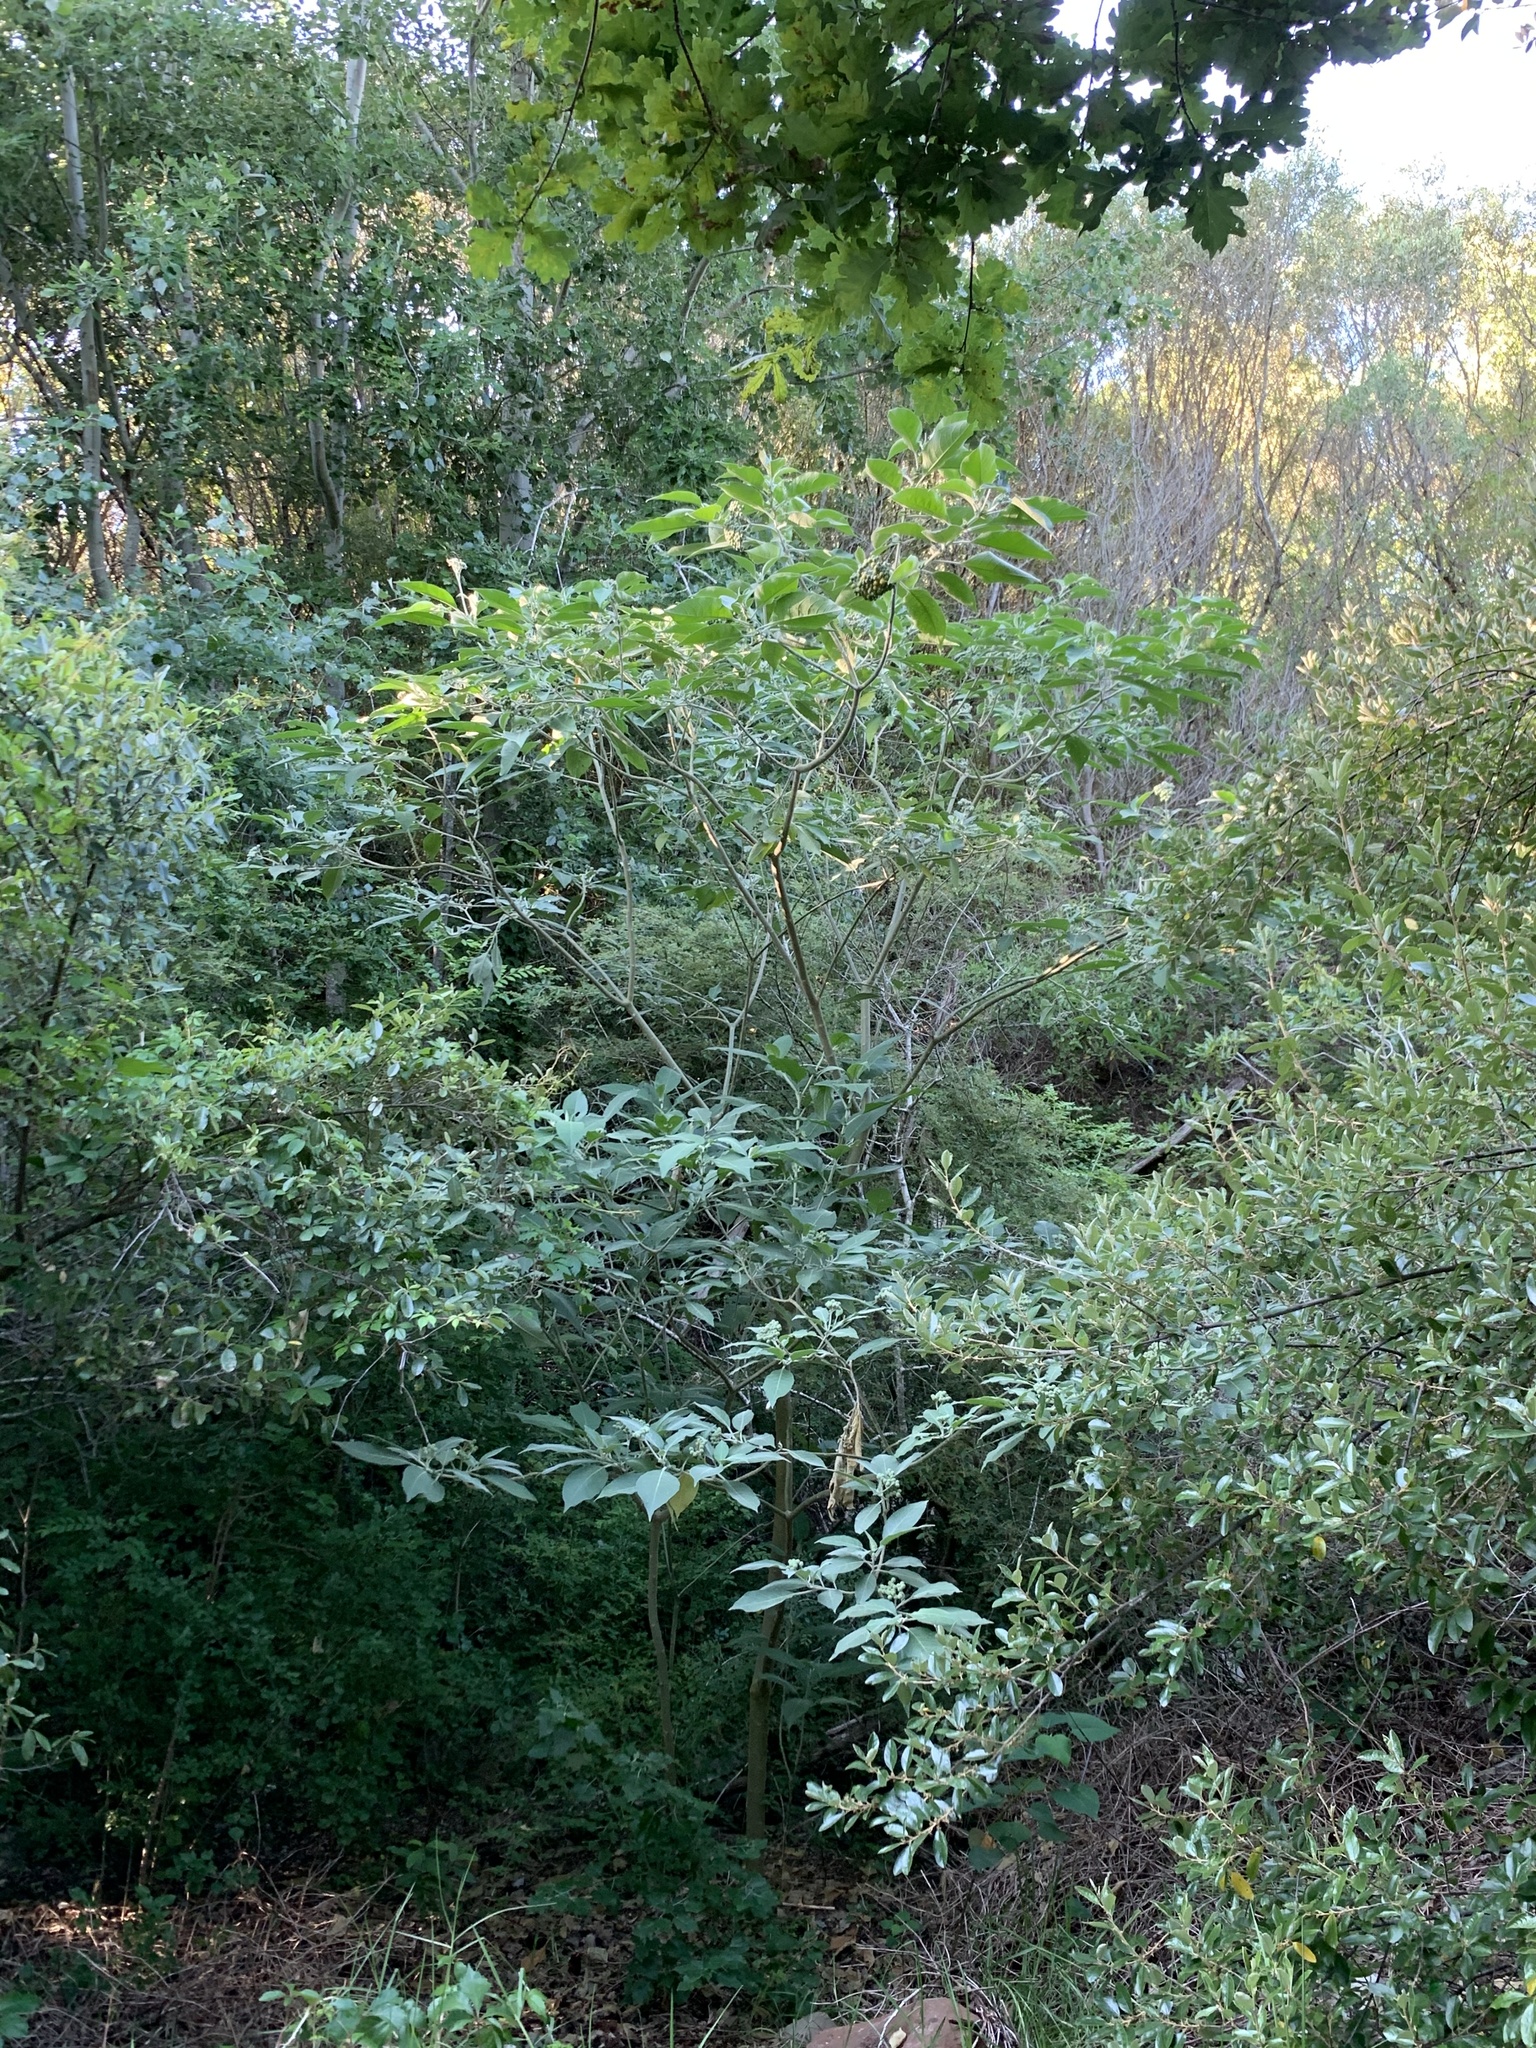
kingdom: Plantae
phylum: Tracheophyta
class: Magnoliopsida
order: Solanales
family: Solanaceae
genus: Solanum
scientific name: Solanum mauritianum
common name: Earleaf nightshade
